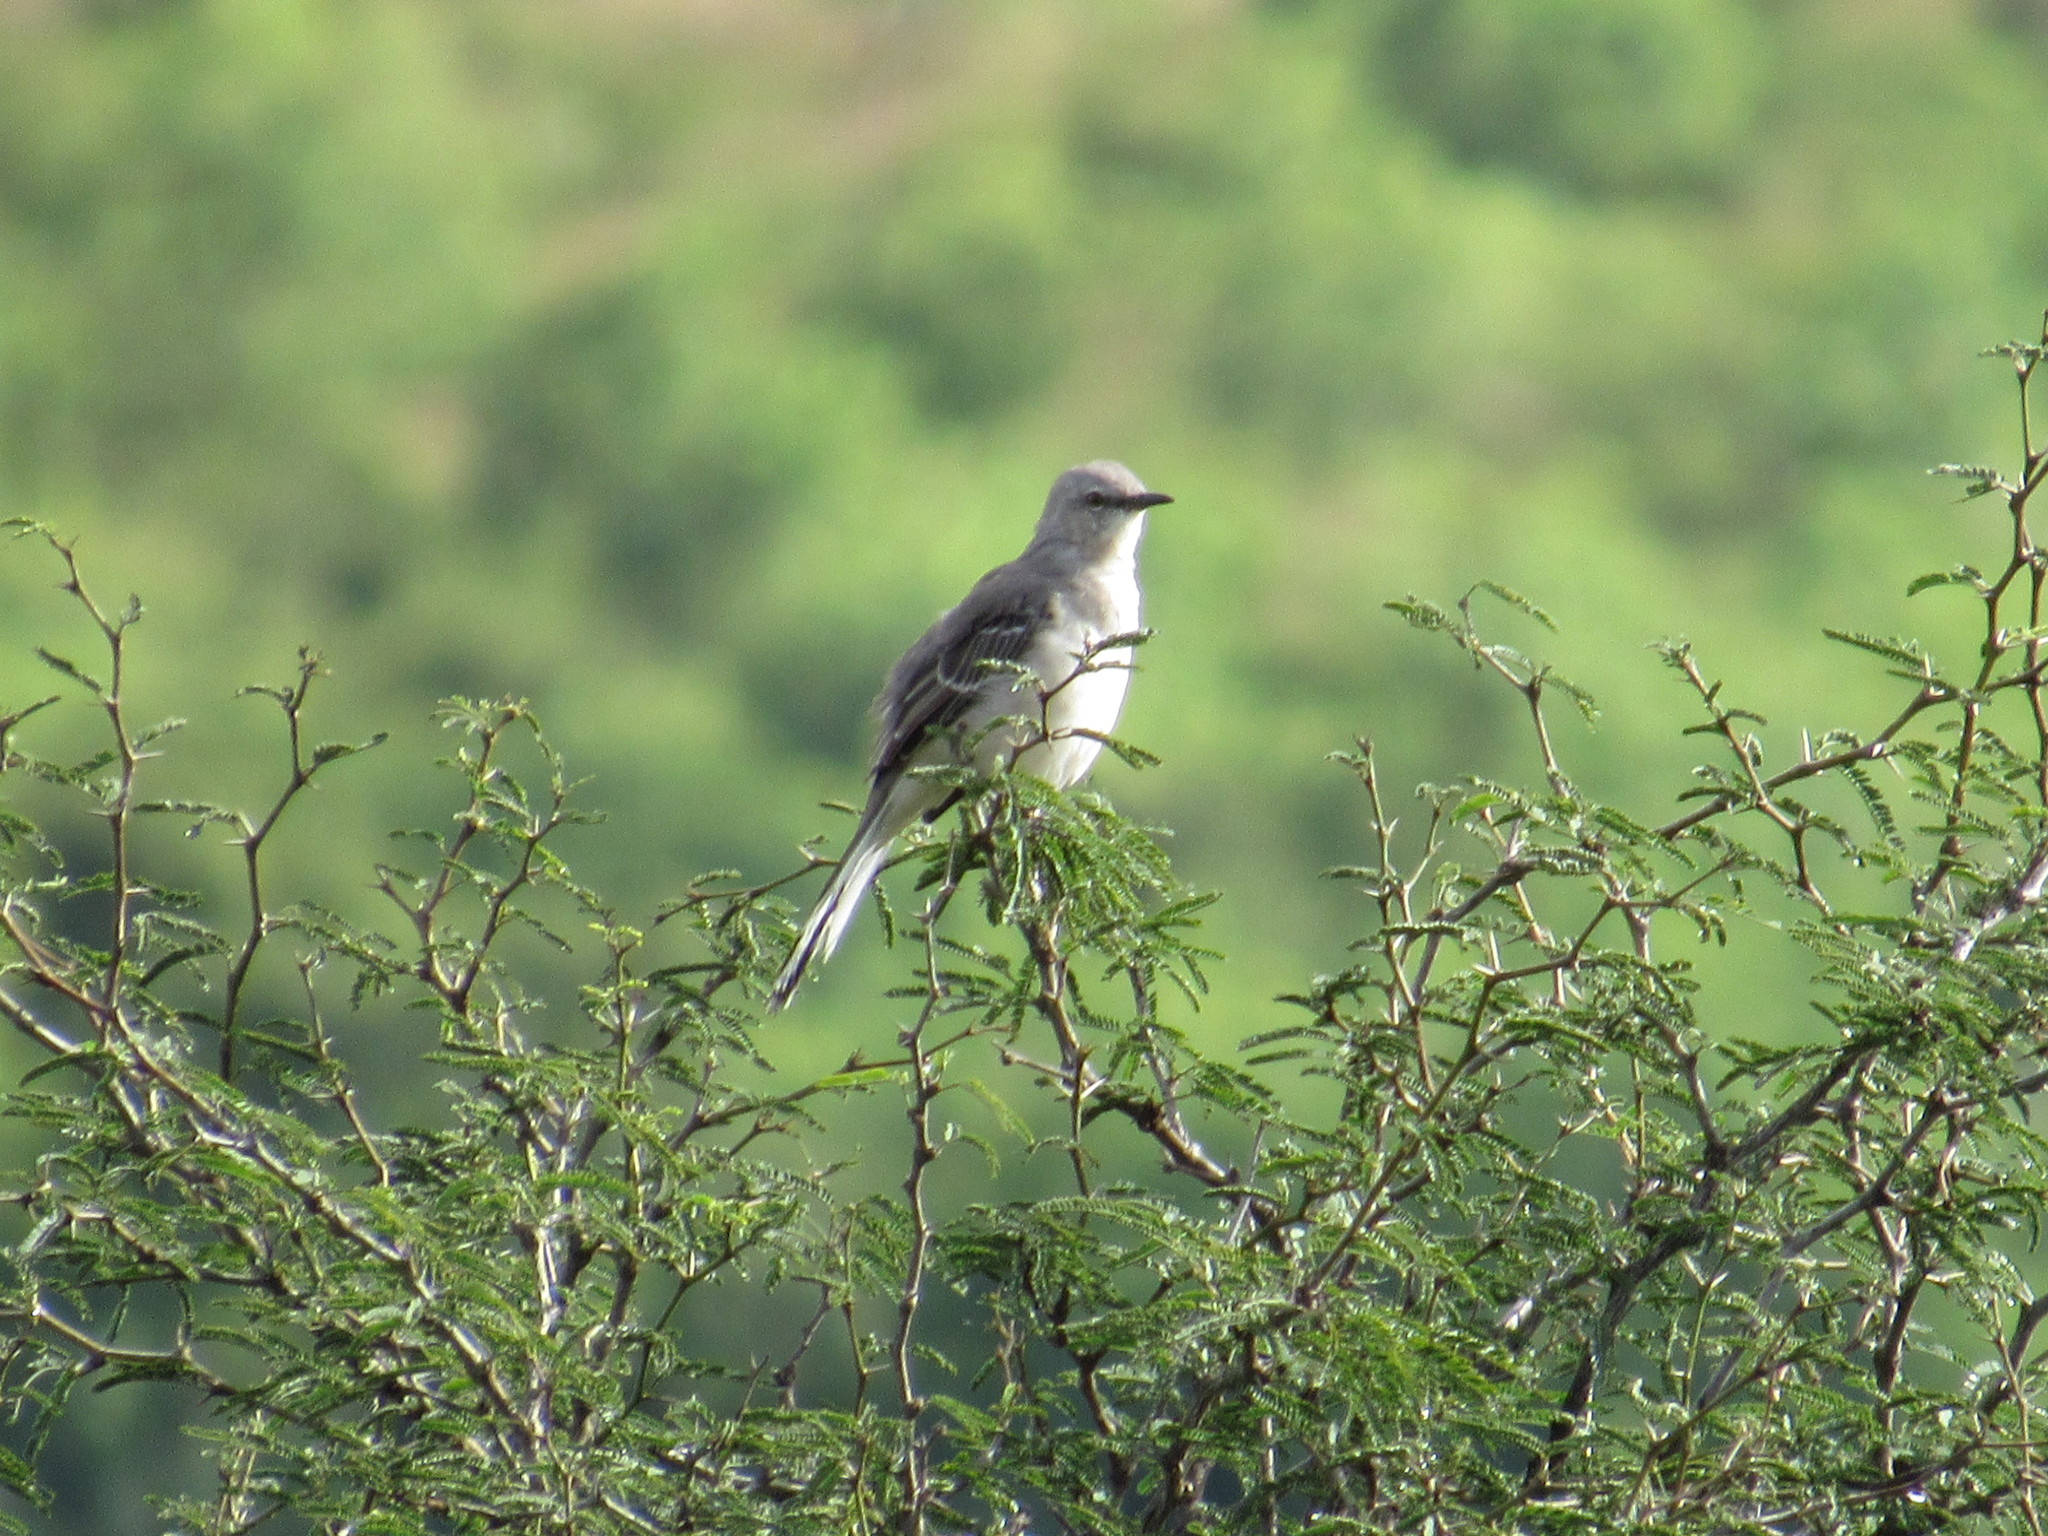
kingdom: Animalia
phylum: Chordata
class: Aves
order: Passeriformes
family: Mimidae
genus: Mimus
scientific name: Mimus polyglottos
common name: Northern mockingbird
